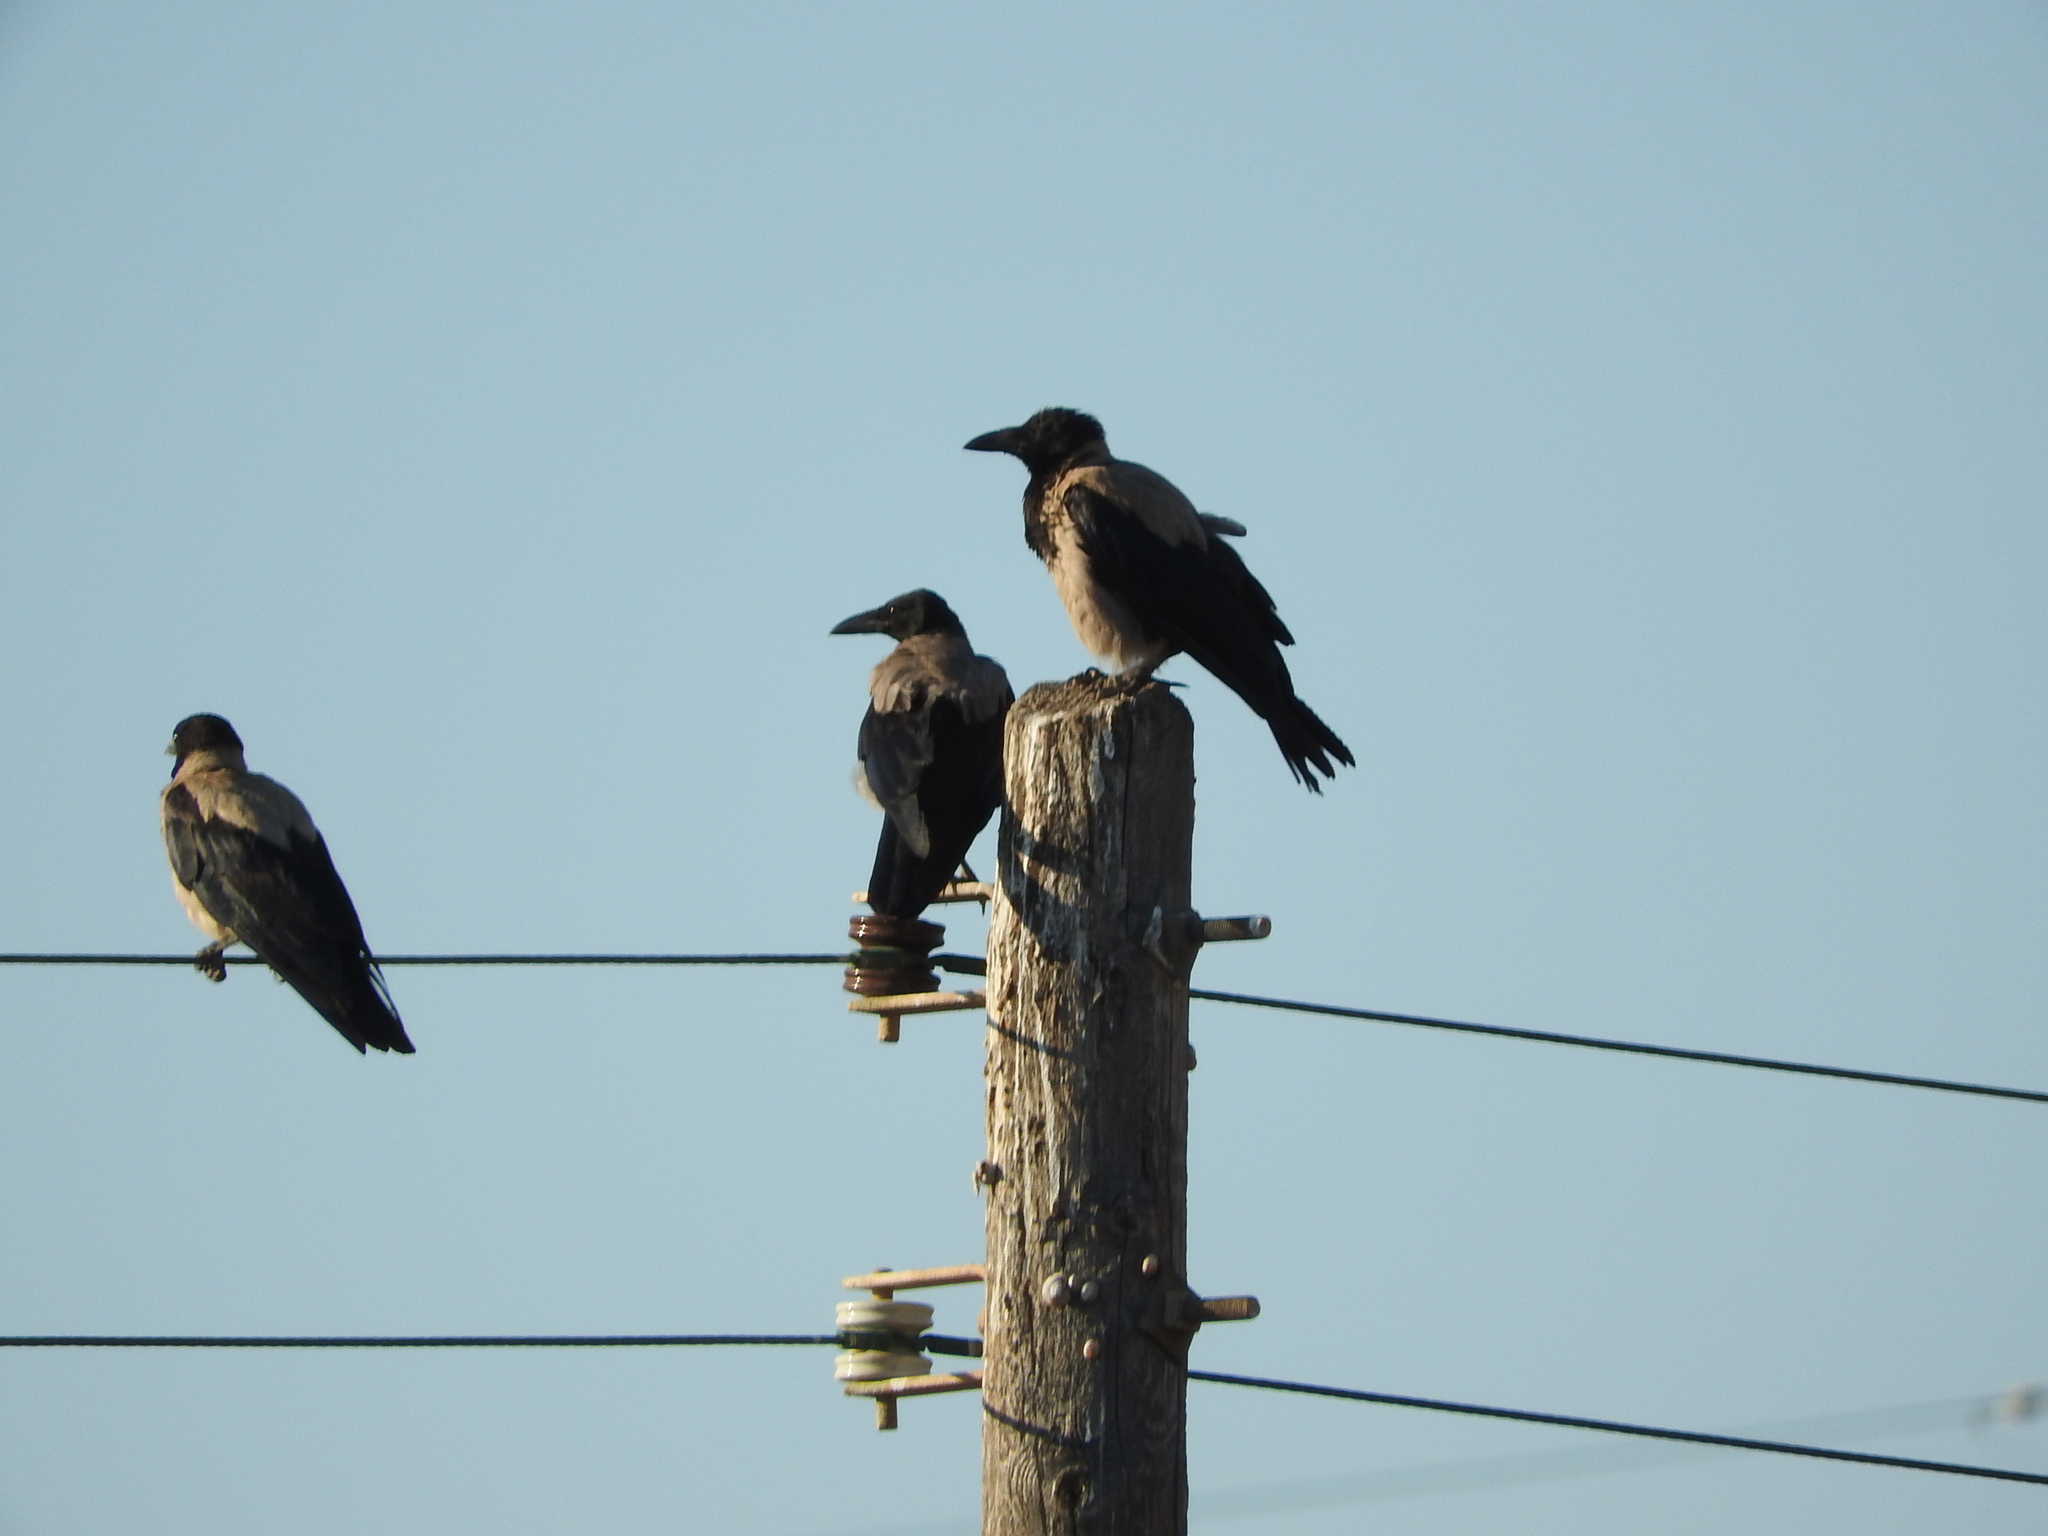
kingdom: Animalia
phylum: Chordata
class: Aves
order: Passeriformes
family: Corvidae
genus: Corvus
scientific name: Corvus cornix
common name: Hooded crow
